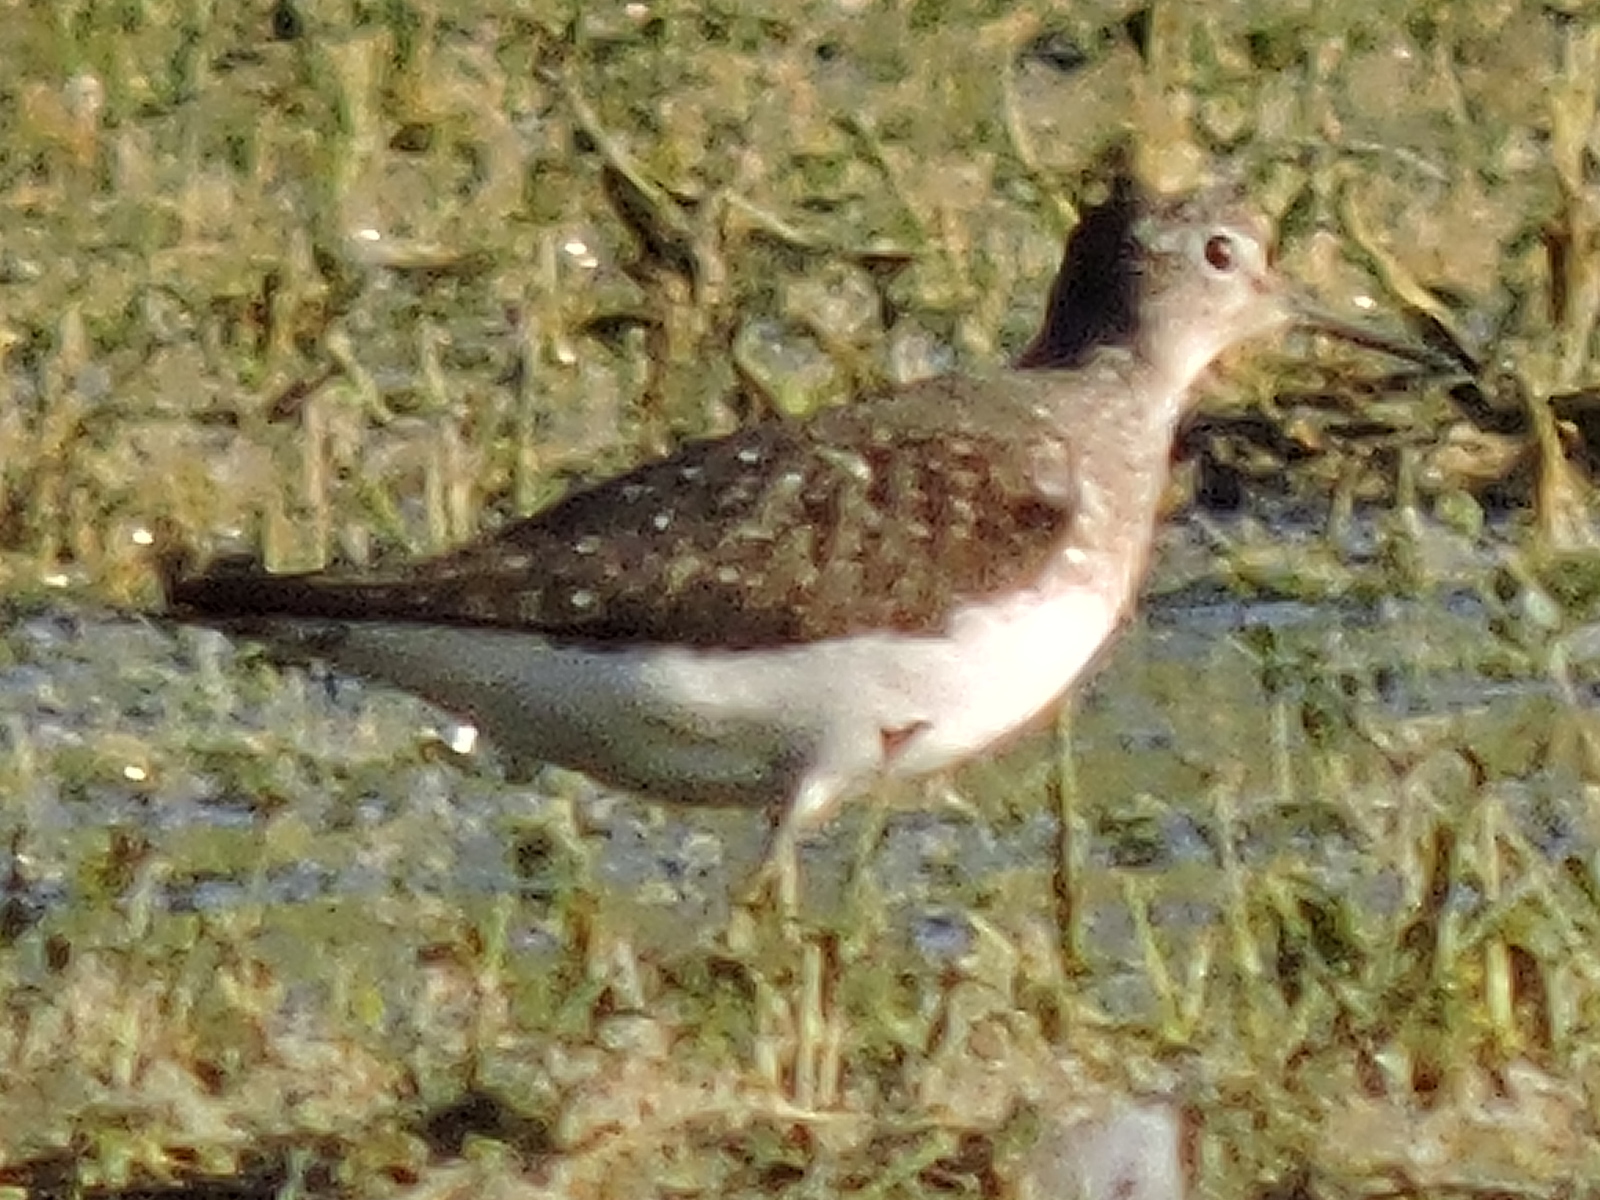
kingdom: Animalia
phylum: Chordata
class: Aves
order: Charadriiformes
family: Scolopacidae
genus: Tringa
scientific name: Tringa solitaria
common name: Solitary sandpiper
